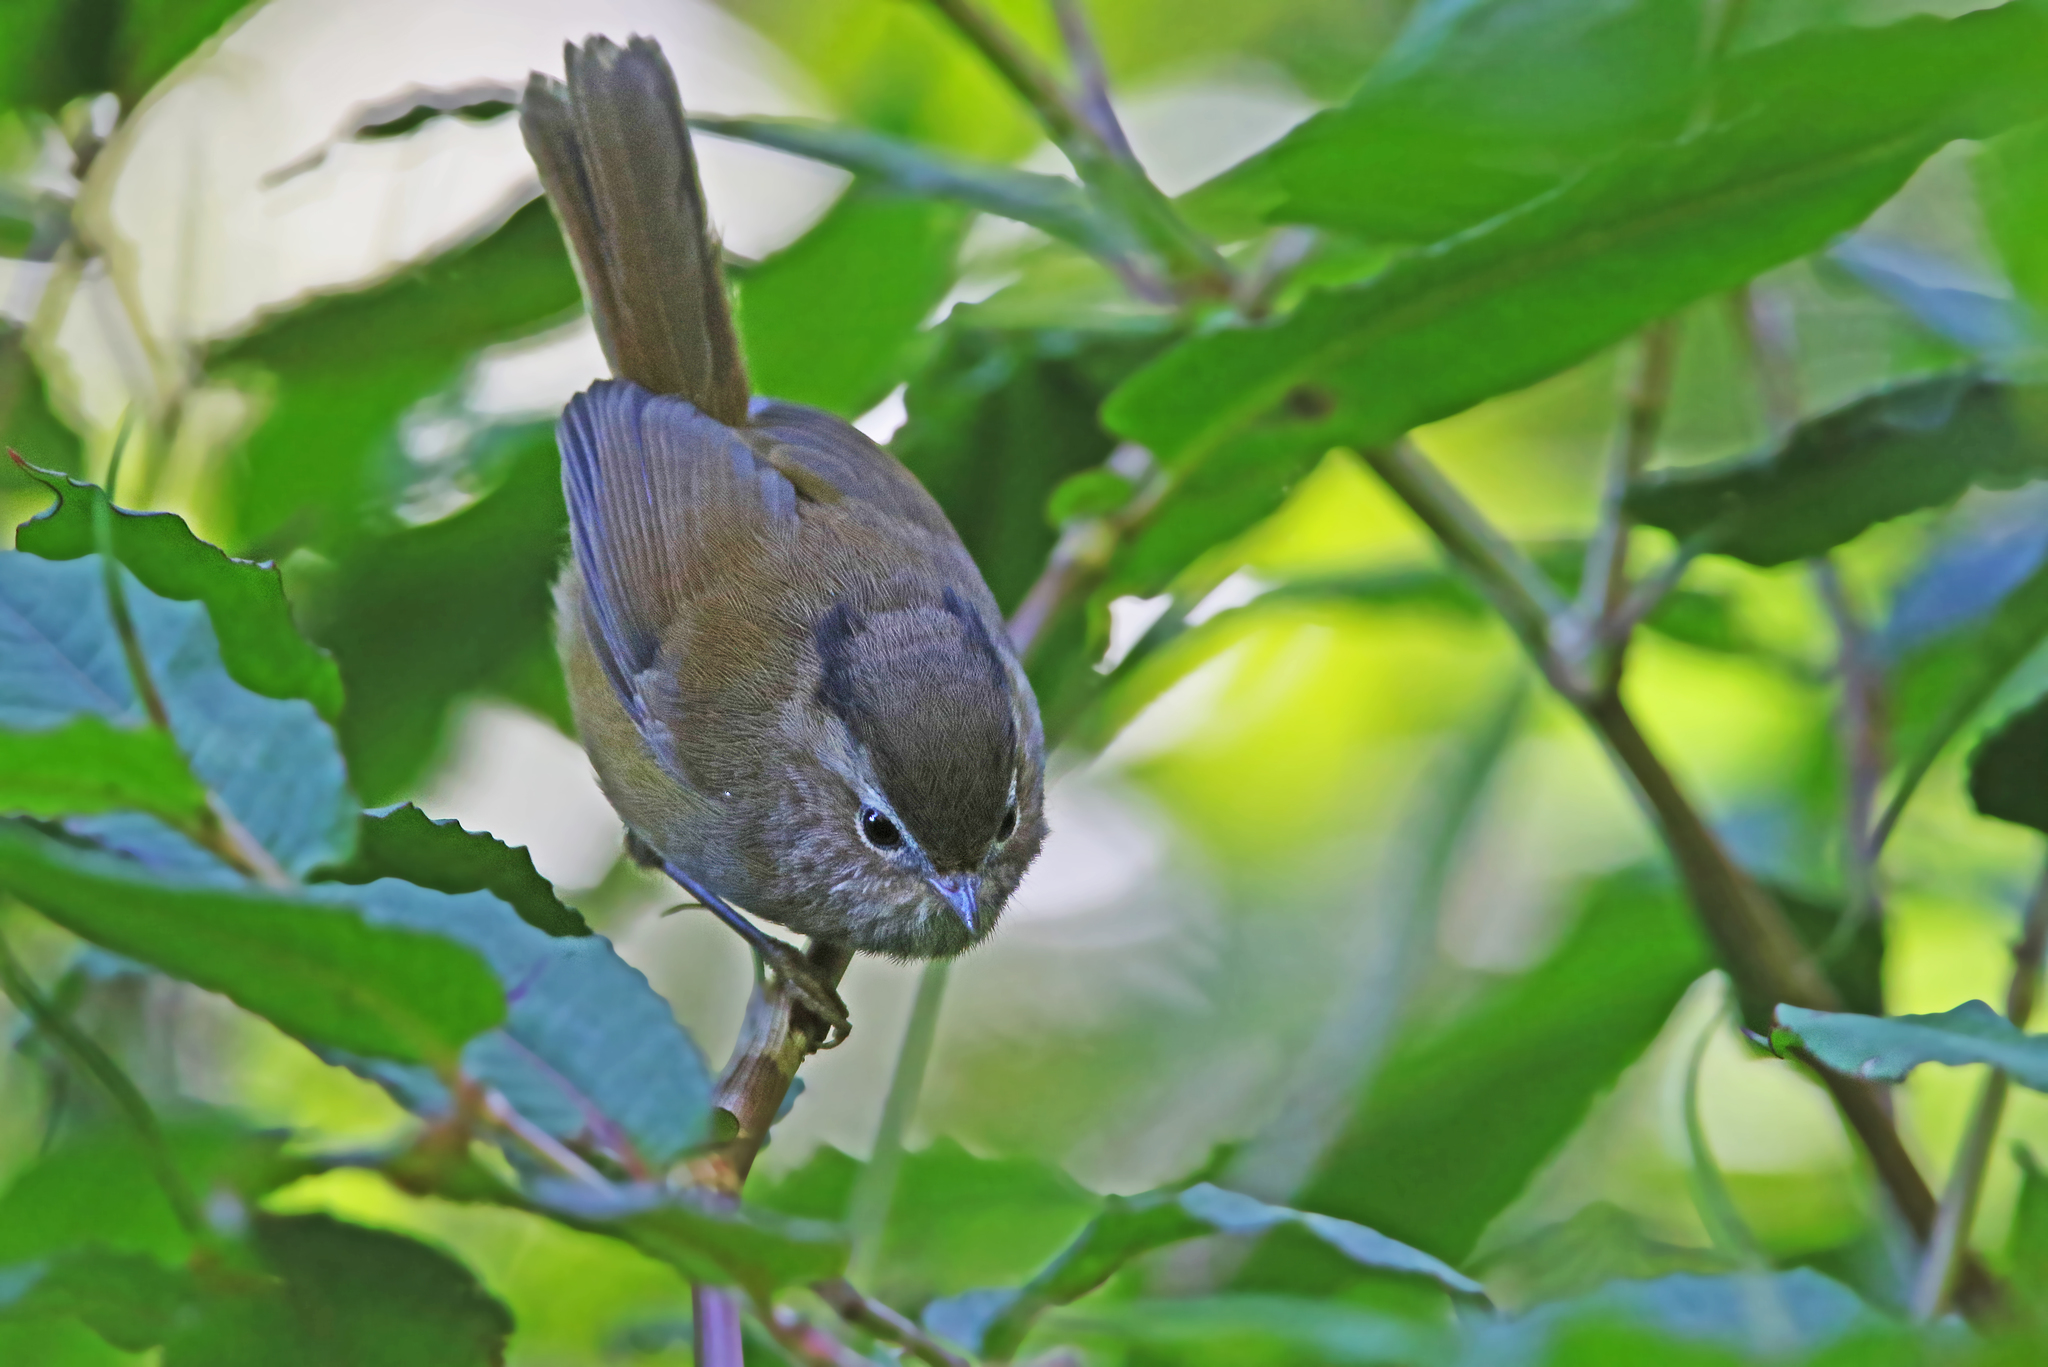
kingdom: Animalia
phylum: Chordata
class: Aves
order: Passeriformes
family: Sylviidae
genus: Fulvetta
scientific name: Fulvetta danisi
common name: Indochinese fulvetta
